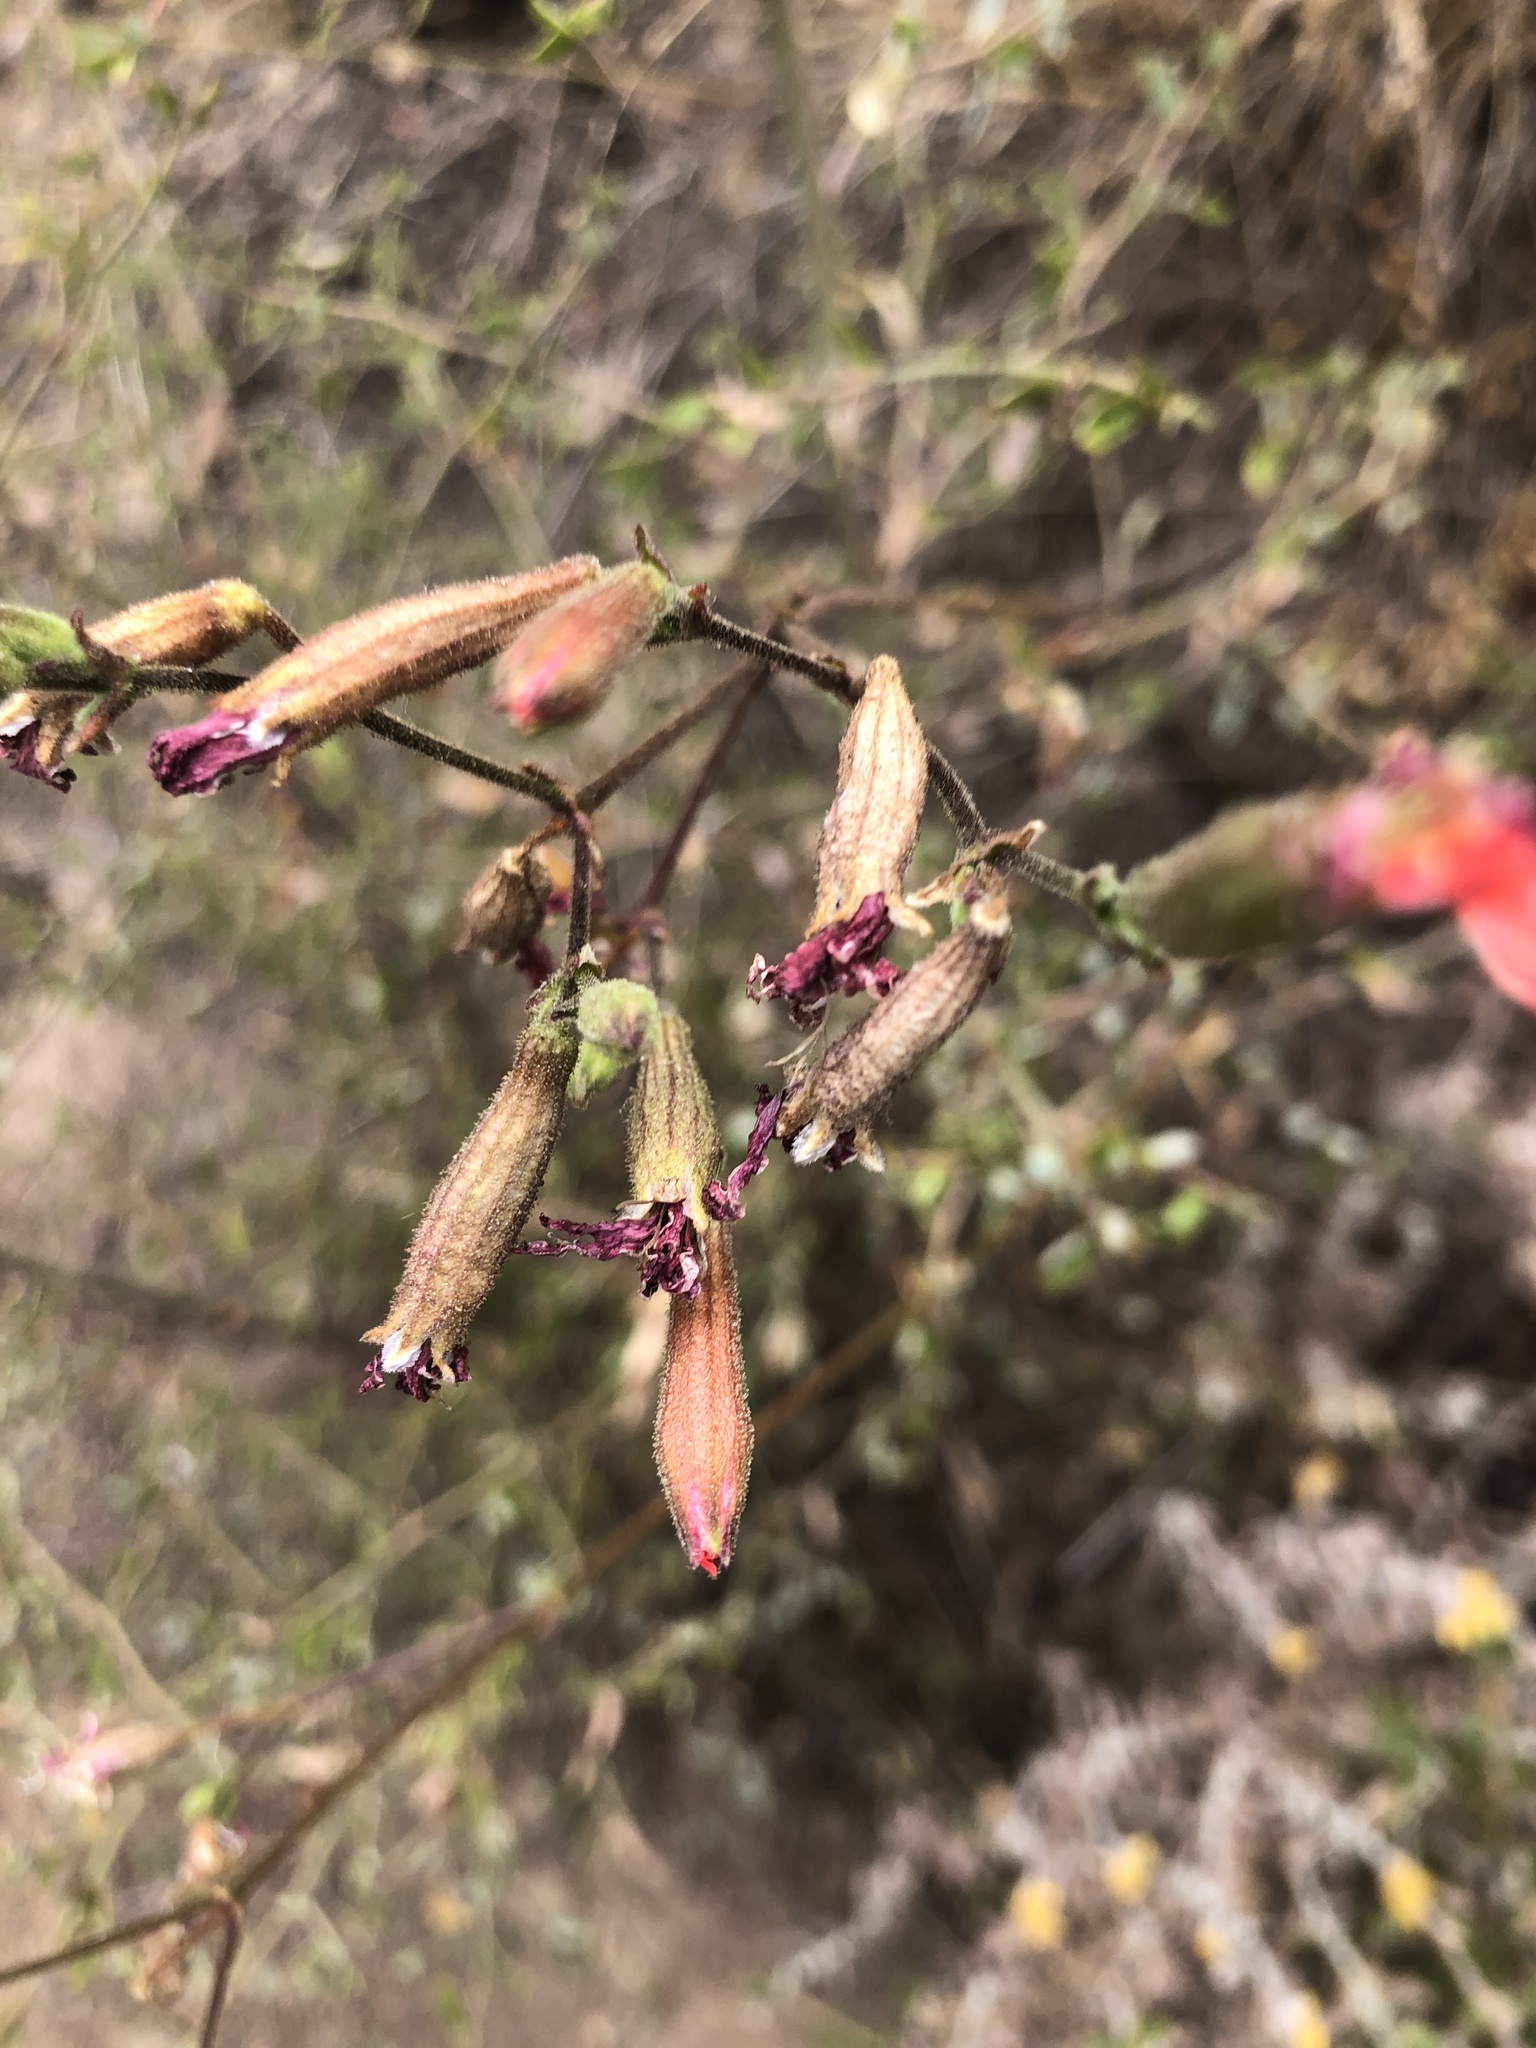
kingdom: Plantae
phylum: Tracheophyta
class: Magnoliopsida
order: Caryophyllales
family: Caryophyllaceae
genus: Silene
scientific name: Silene laciniata
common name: Indian-pink
